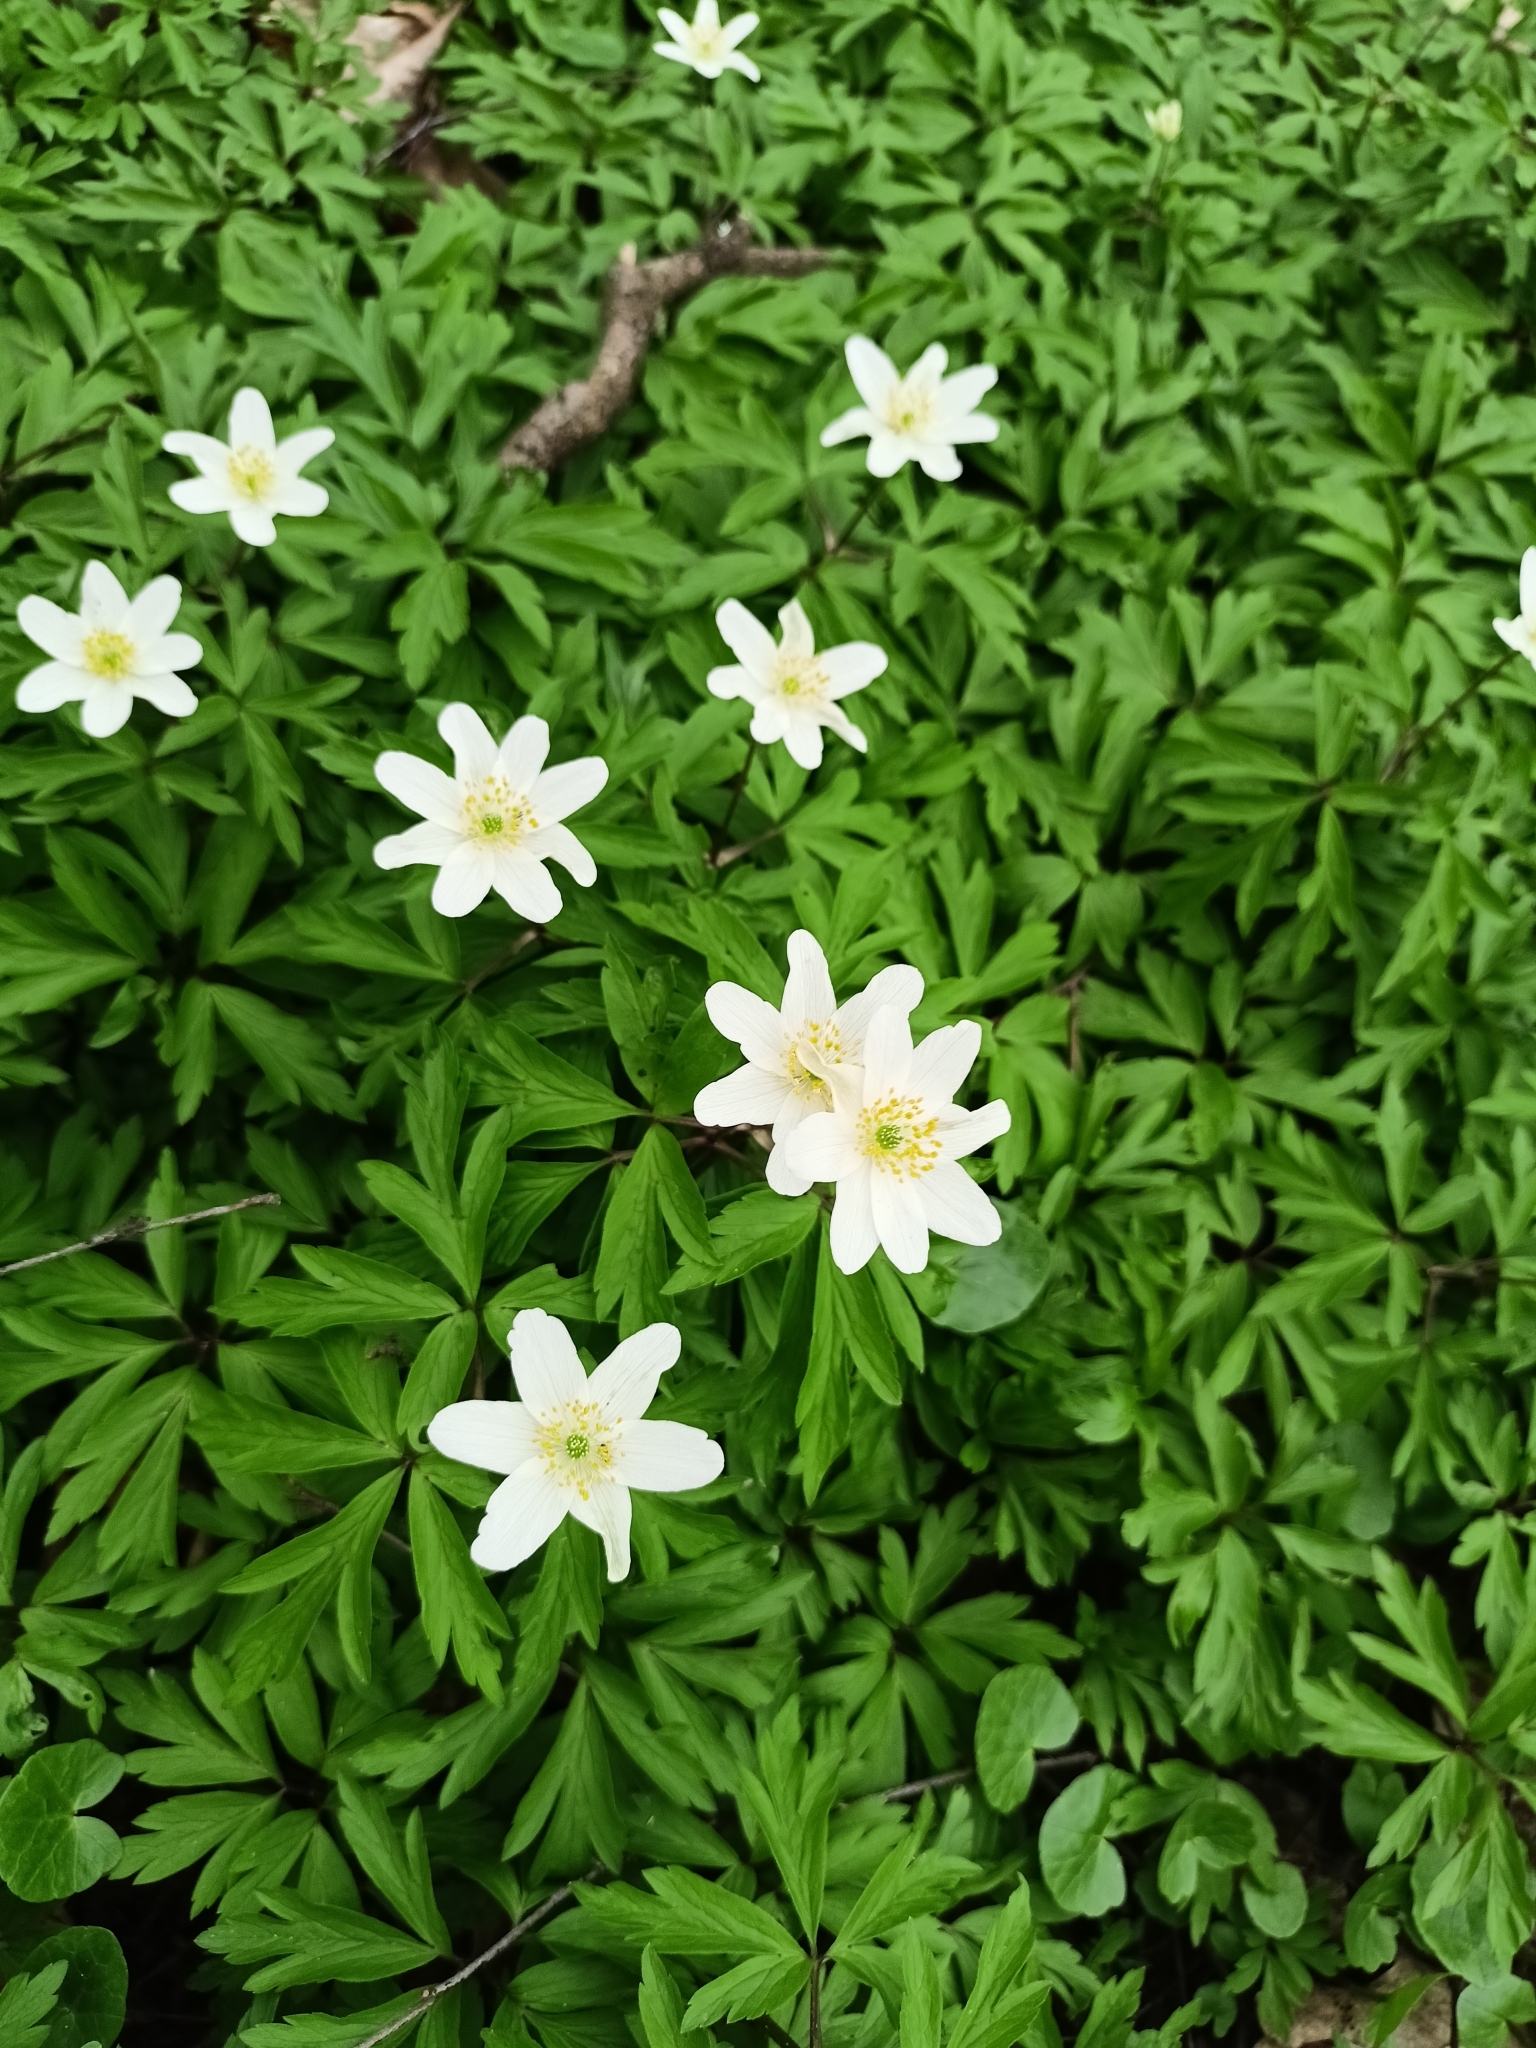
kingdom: Plantae
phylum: Tracheophyta
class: Magnoliopsida
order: Ranunculales
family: Ranunculaceae
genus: Anemone
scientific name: Anemone nemorosa
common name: Wood anemone
